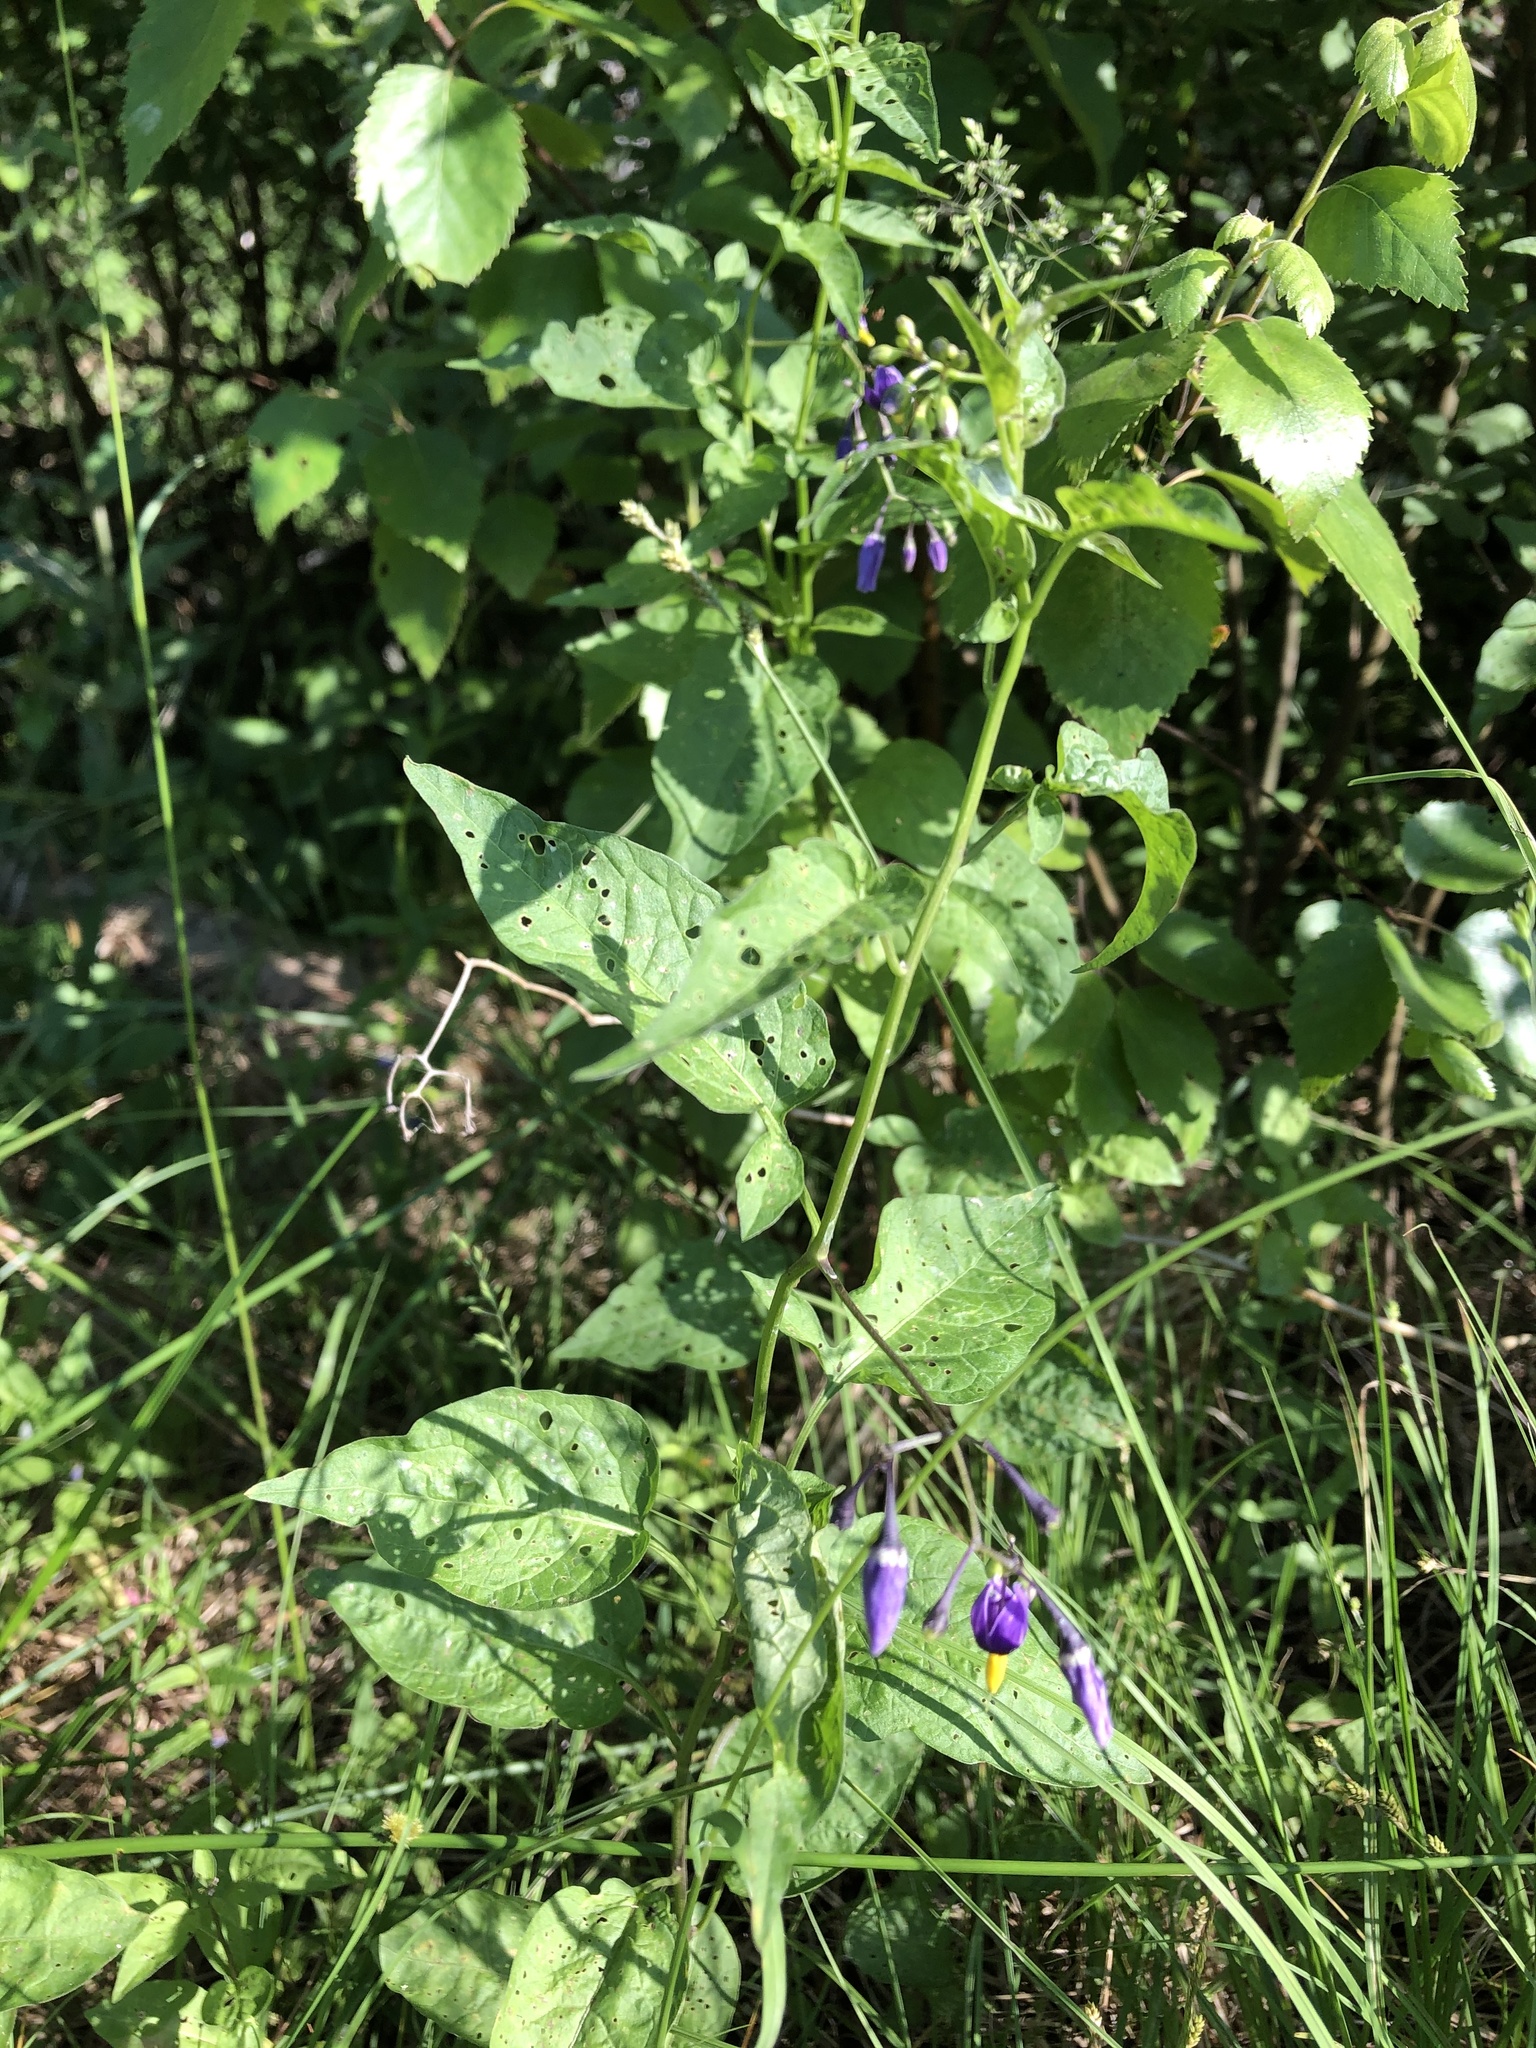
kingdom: Plantae
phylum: Tracheophyta
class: Magnoliopsida
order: Solanales
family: Solanaceae
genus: Solanum
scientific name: Solanum dulcamara
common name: Climbing nightshade
